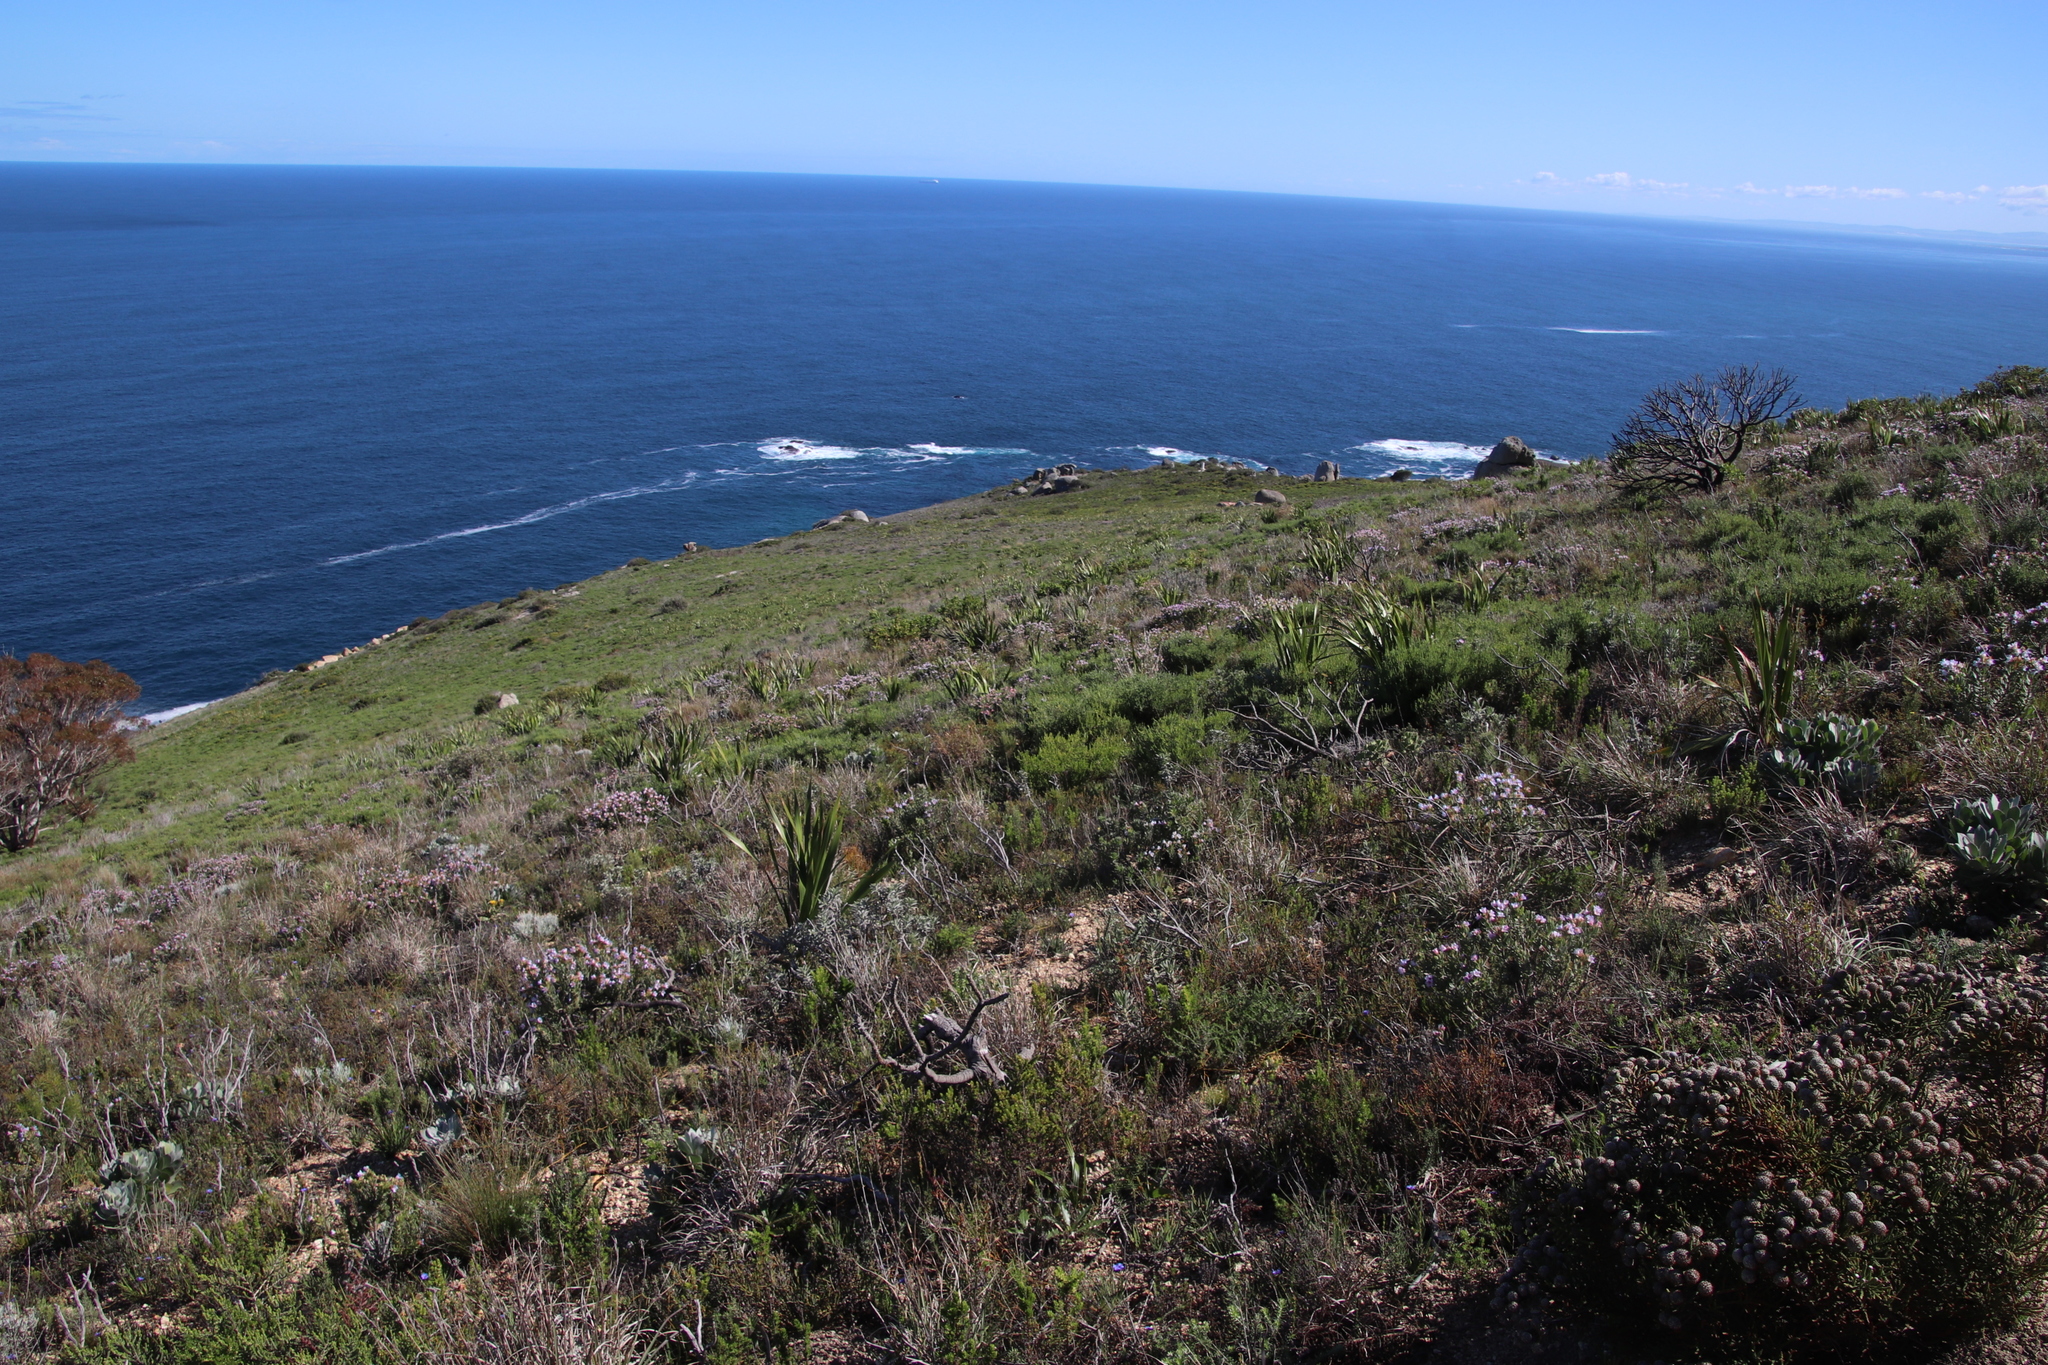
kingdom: Plantae
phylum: Tracheophyta
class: Magnoliopsida
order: Boraginales
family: Boraginaceae
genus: Lobostemon
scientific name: Lobostemon fruticosus
